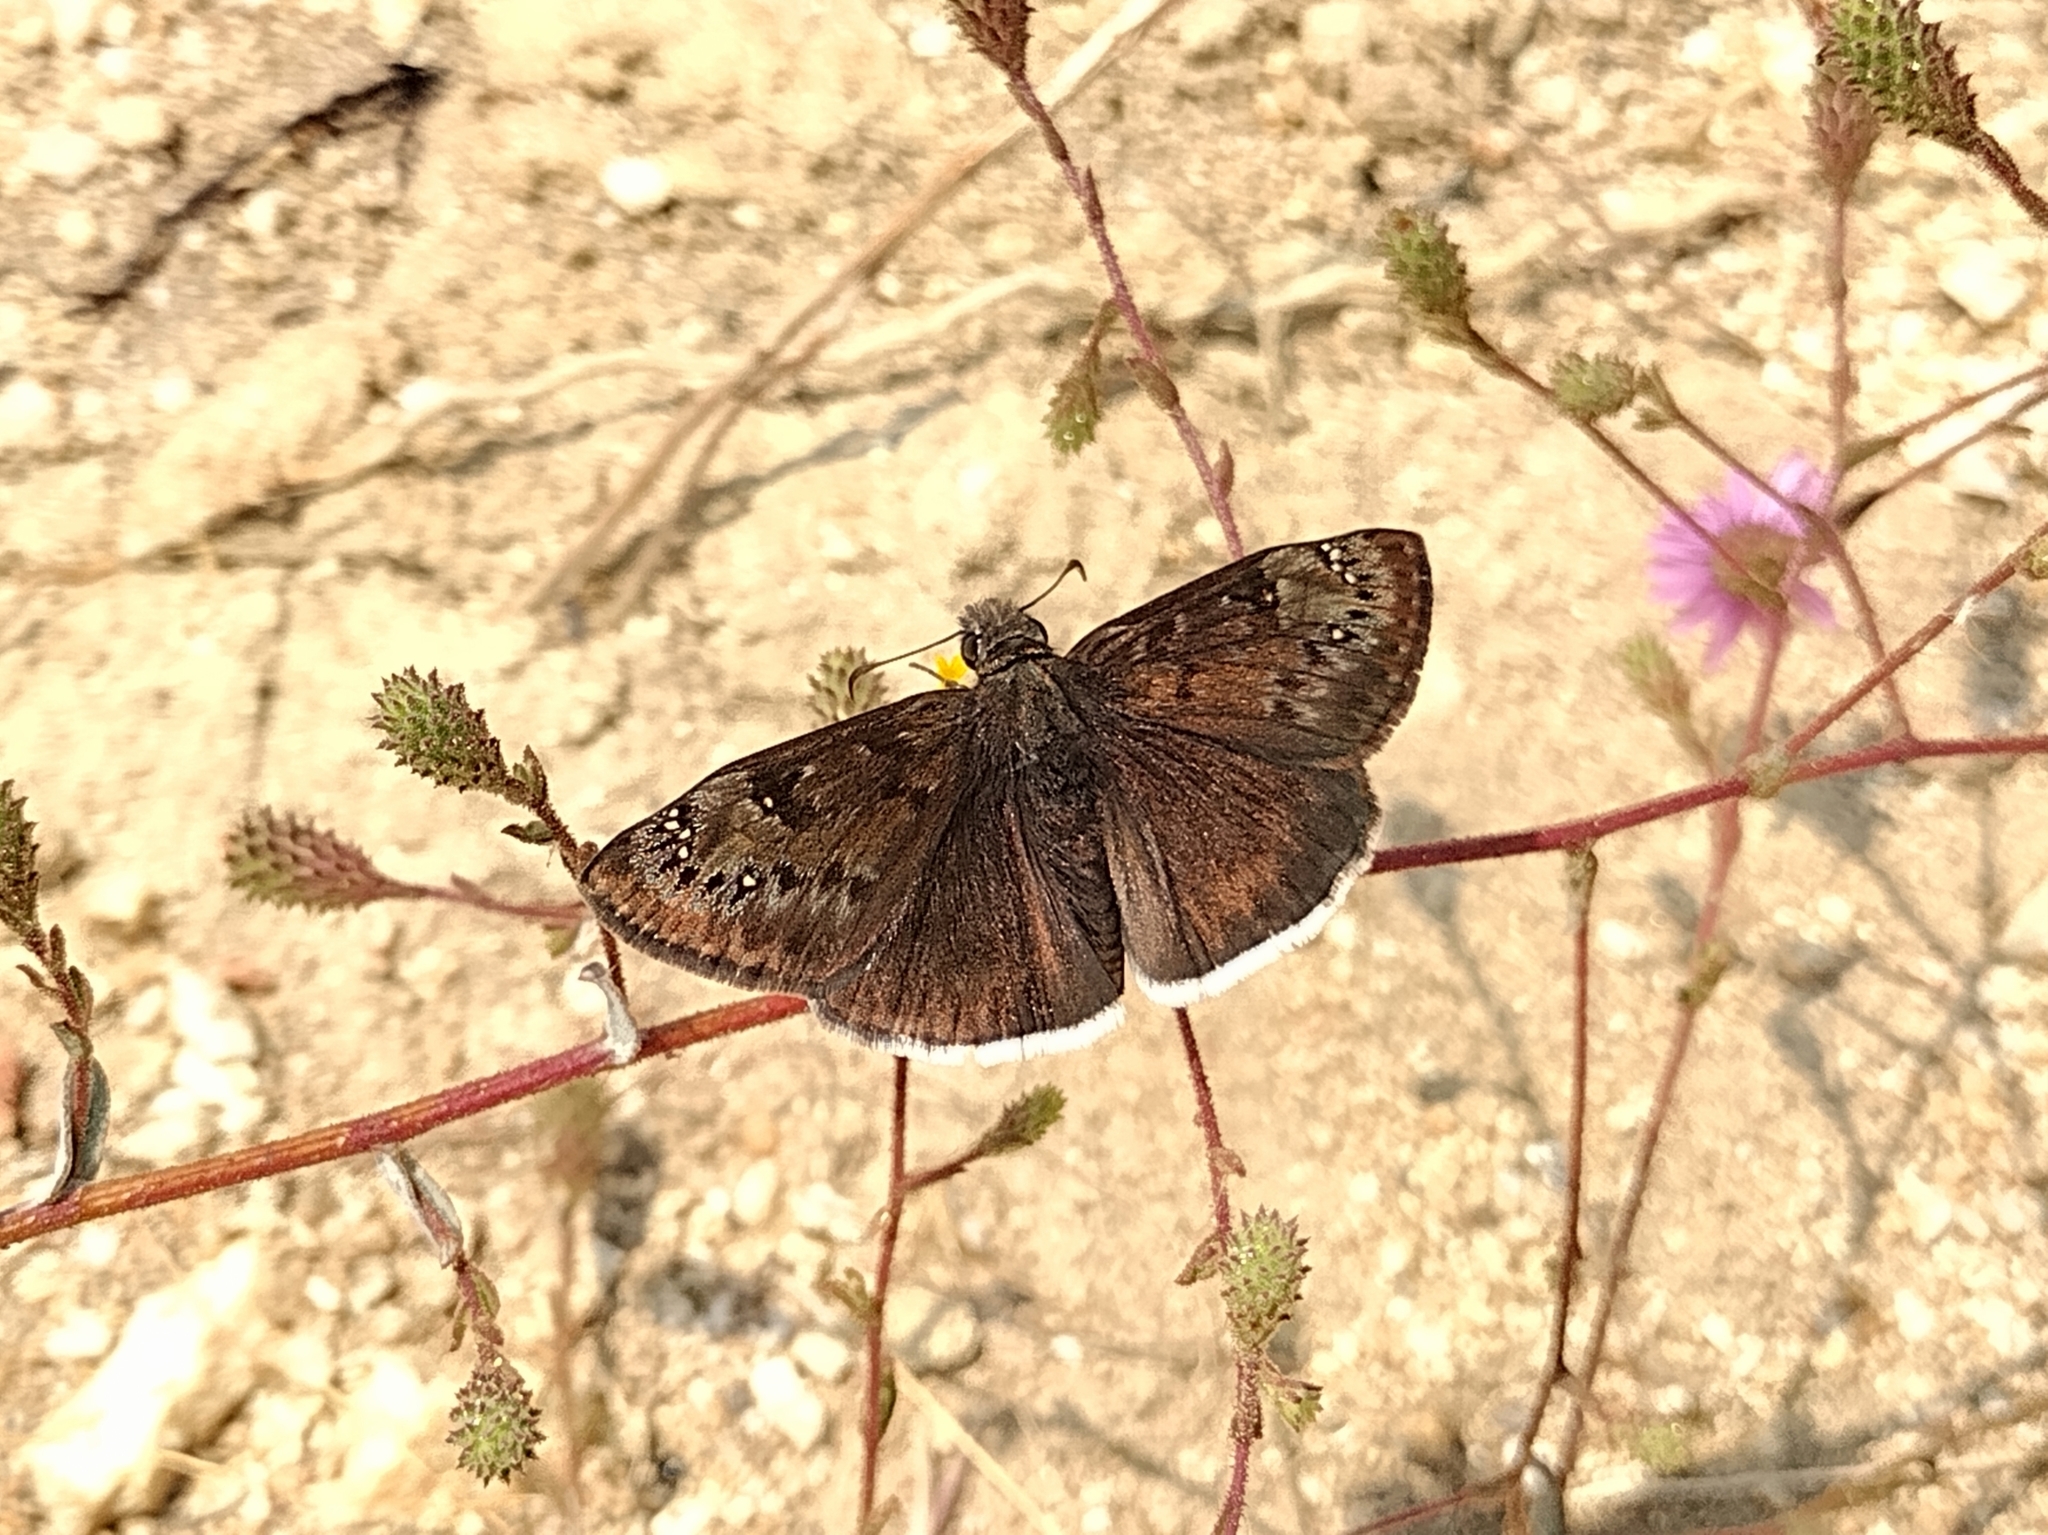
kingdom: Animalia
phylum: Arthropoda
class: Insecta
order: Lepidoptera
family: Hesperiidae
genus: Erynnis
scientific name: Erynnis tristis
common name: Mournful duskywing
